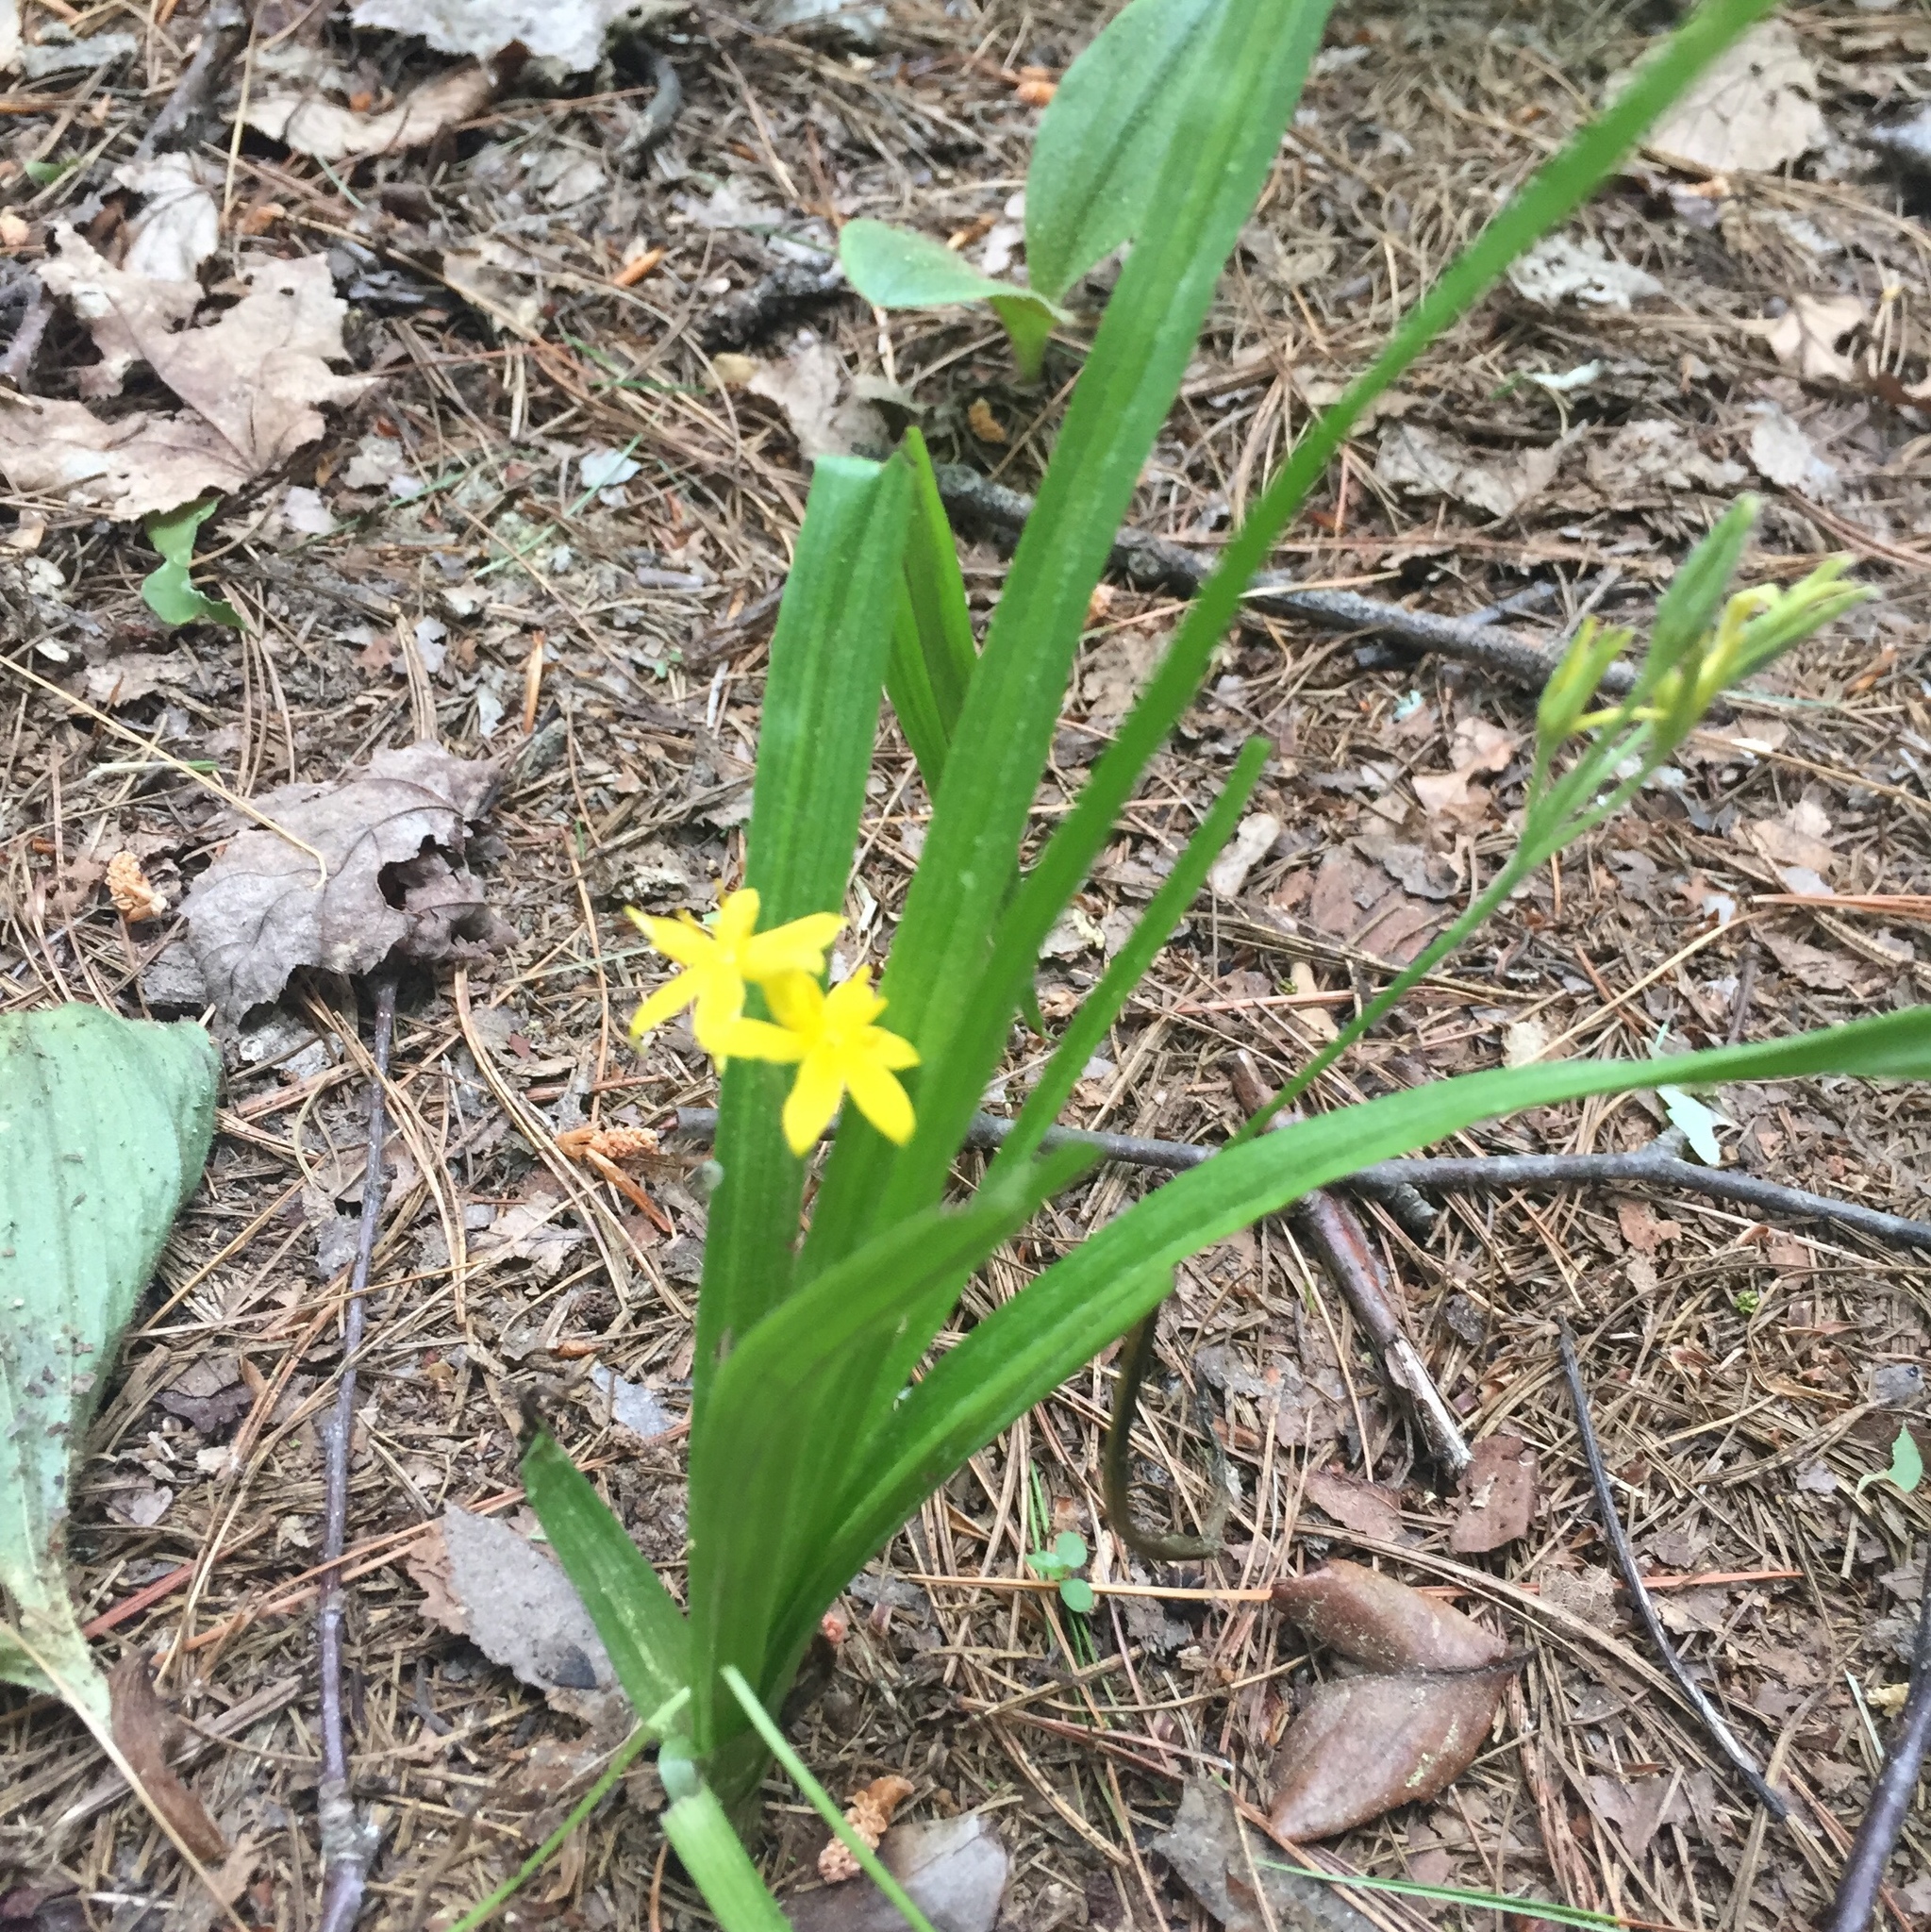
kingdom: Plantae
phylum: Tracheophyta
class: Liliopsida
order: Asparagales
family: Hypoxidaceae
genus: Hypoxis
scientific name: Hypoxis hirsuta
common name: Common goldstar
